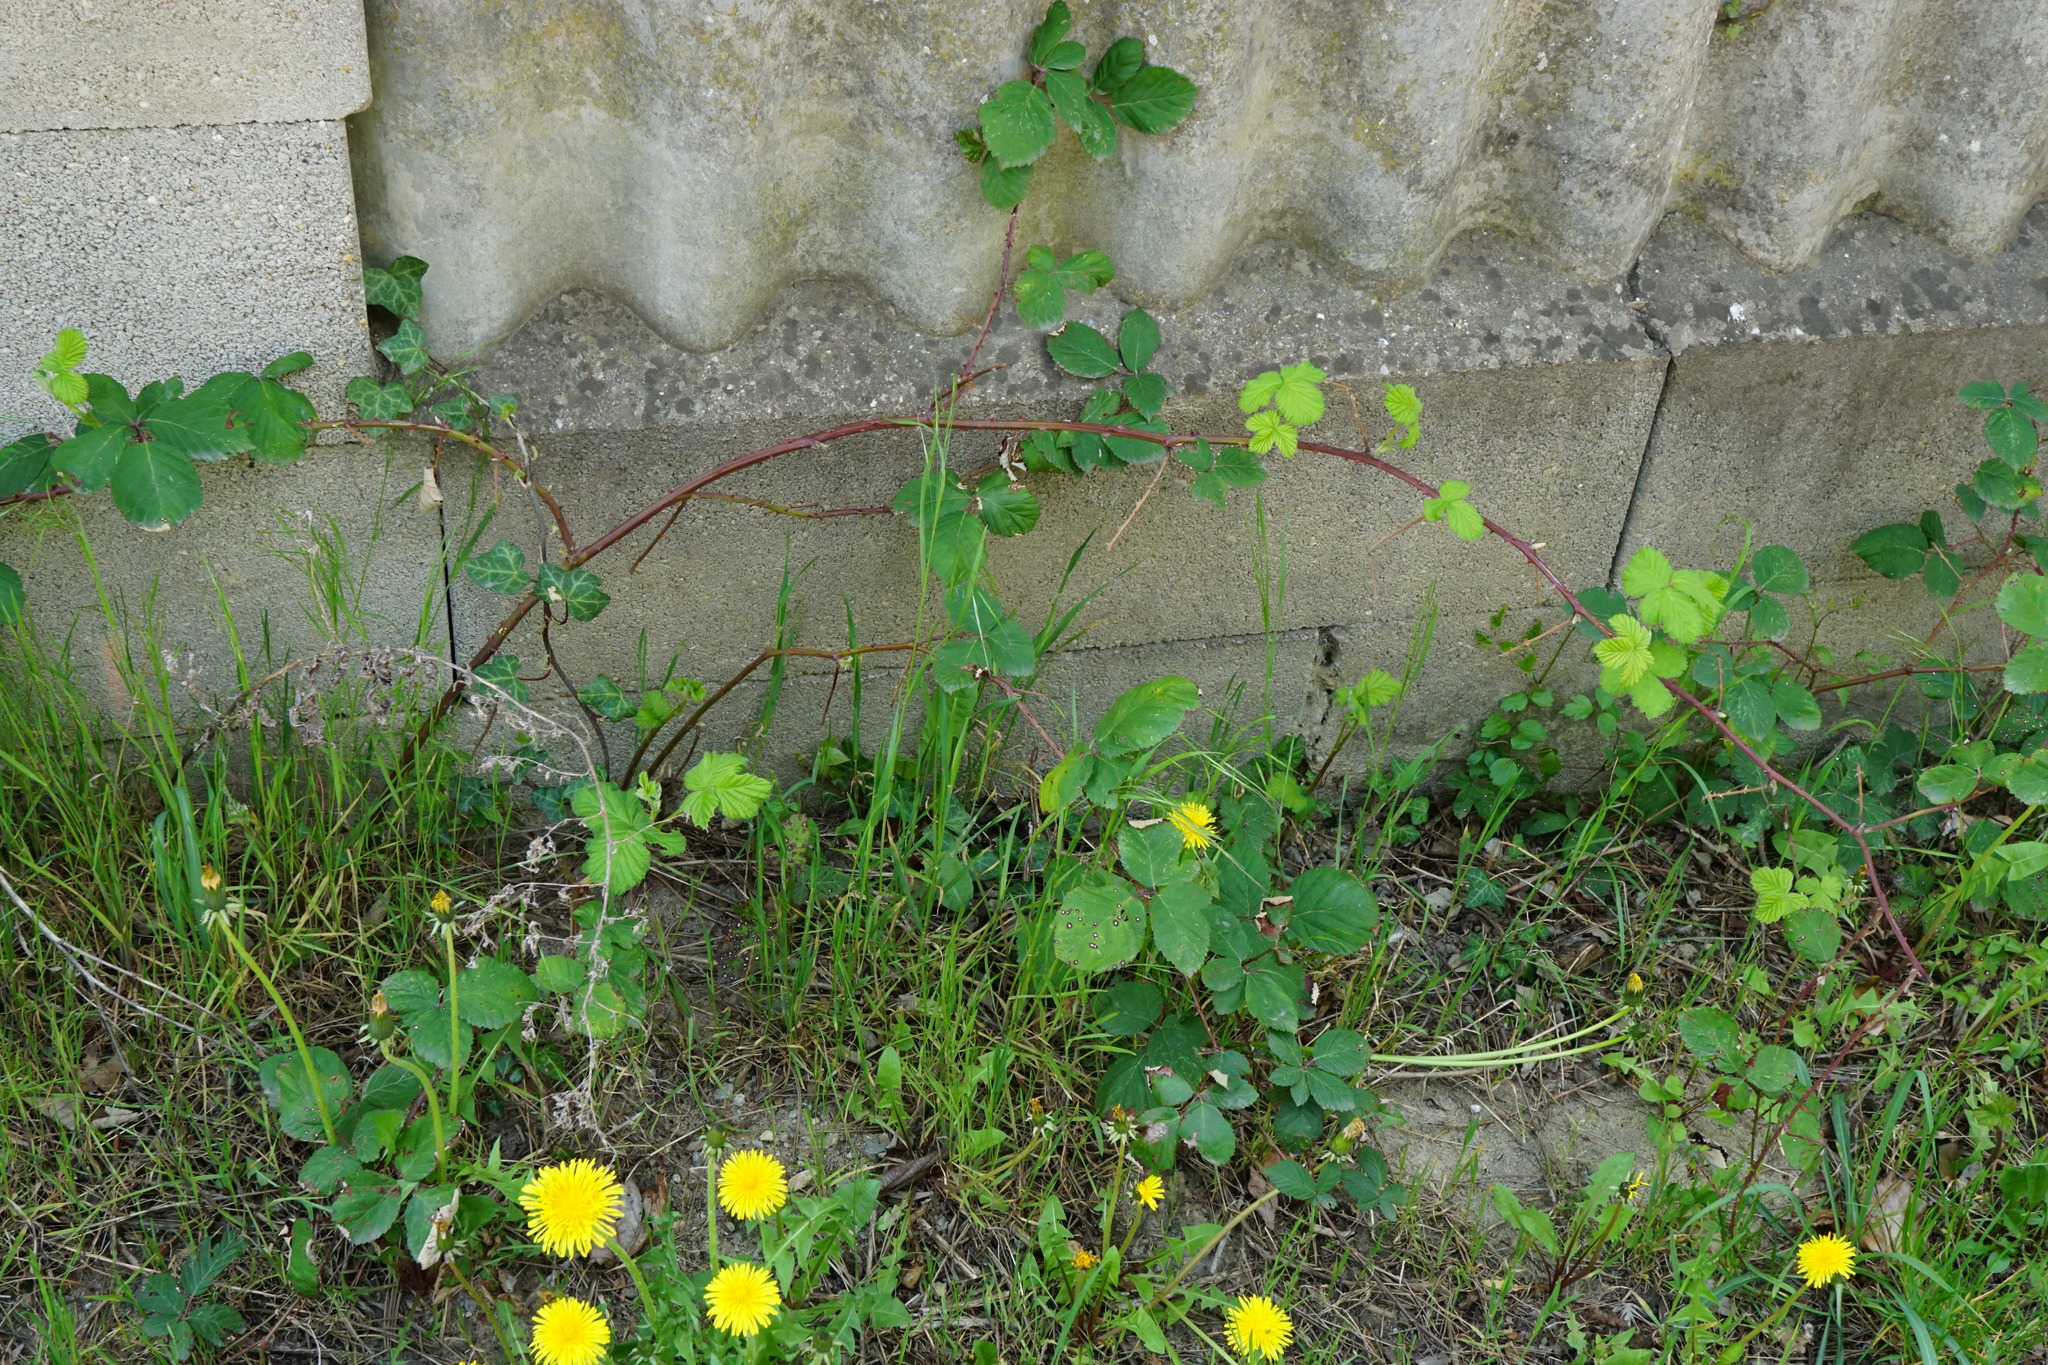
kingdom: Plantae
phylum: Tracheophyta
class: Magnoliopsida
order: Rosales
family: Rosaceae
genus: Rubus
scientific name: Rubus
